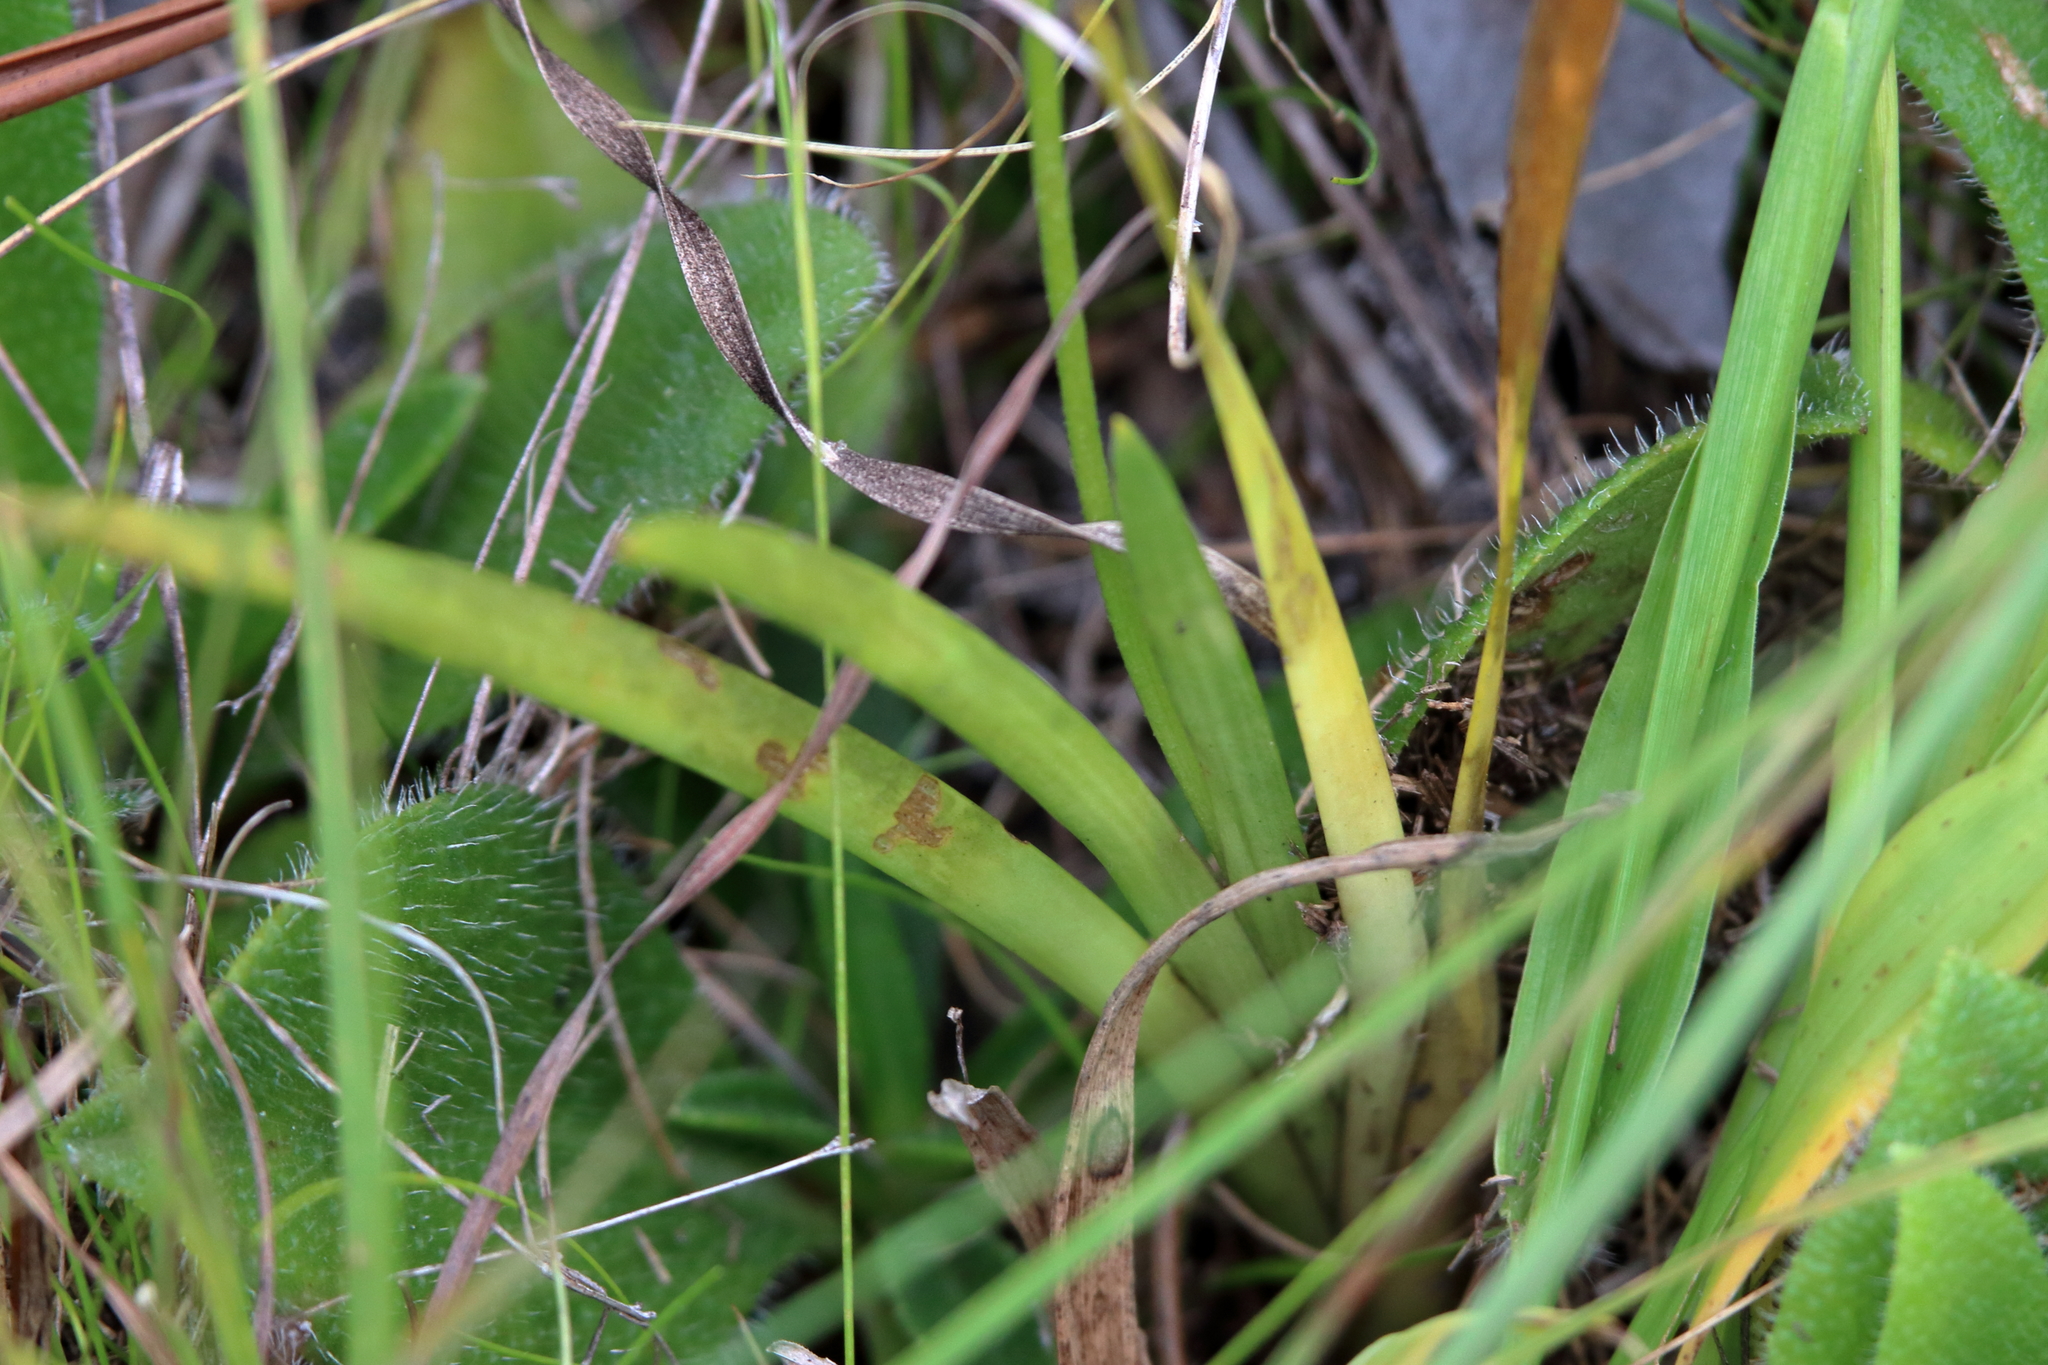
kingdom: Plantae
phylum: Tracheophyta
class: Liliopsida
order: Alismatales
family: Tofieldiaceae
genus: Triantha
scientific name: Triantha racemosa
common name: Coastal false asphodel
